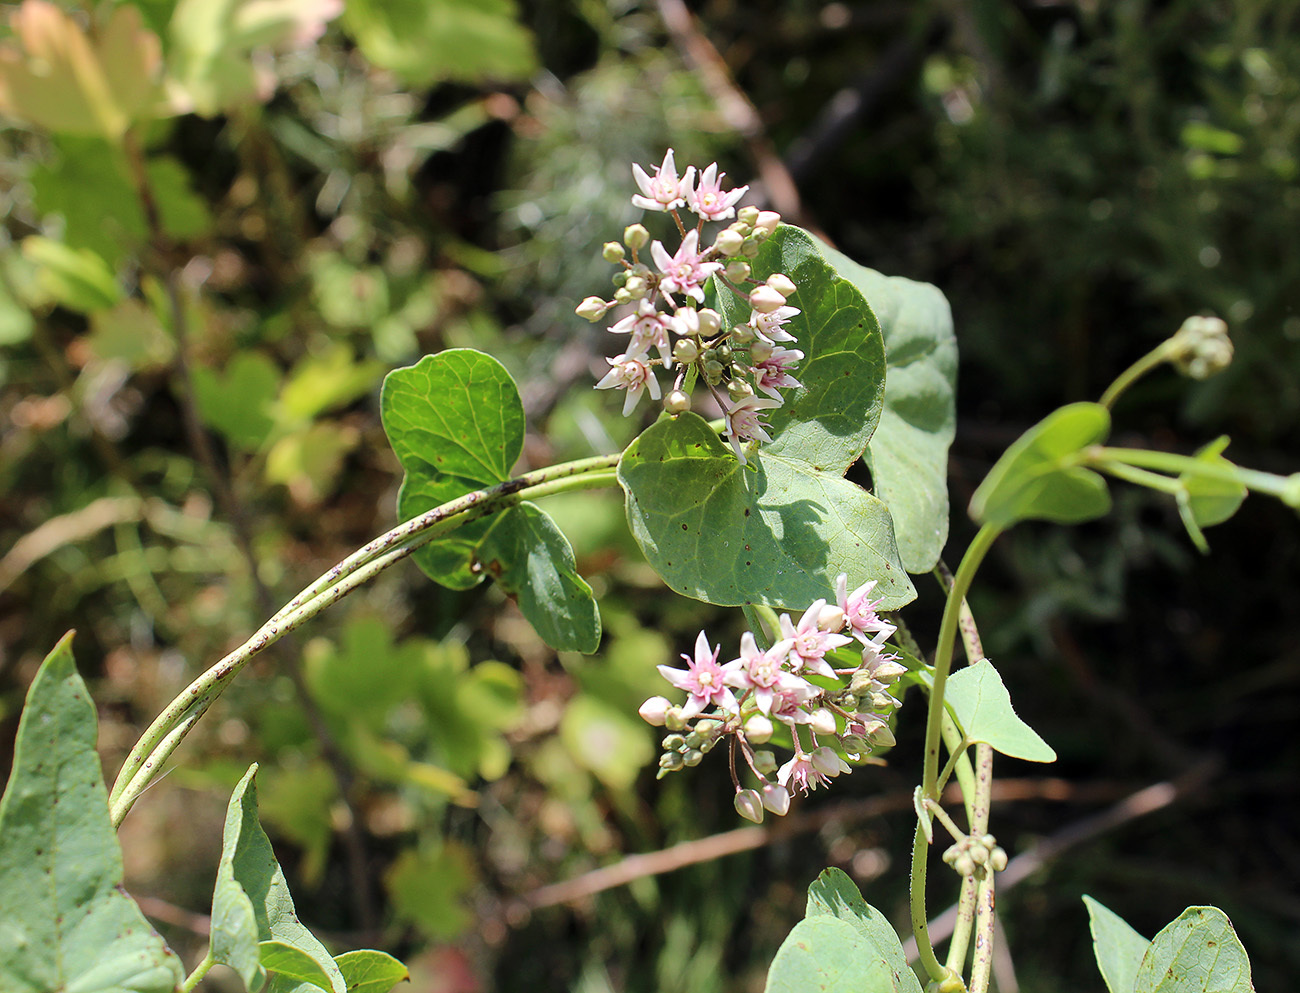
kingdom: Plantae
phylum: Tracheophyta
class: Magnoliopsida
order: Gentianales
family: Apocynaceae
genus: Cynanchum
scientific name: Cynanchum acutum
